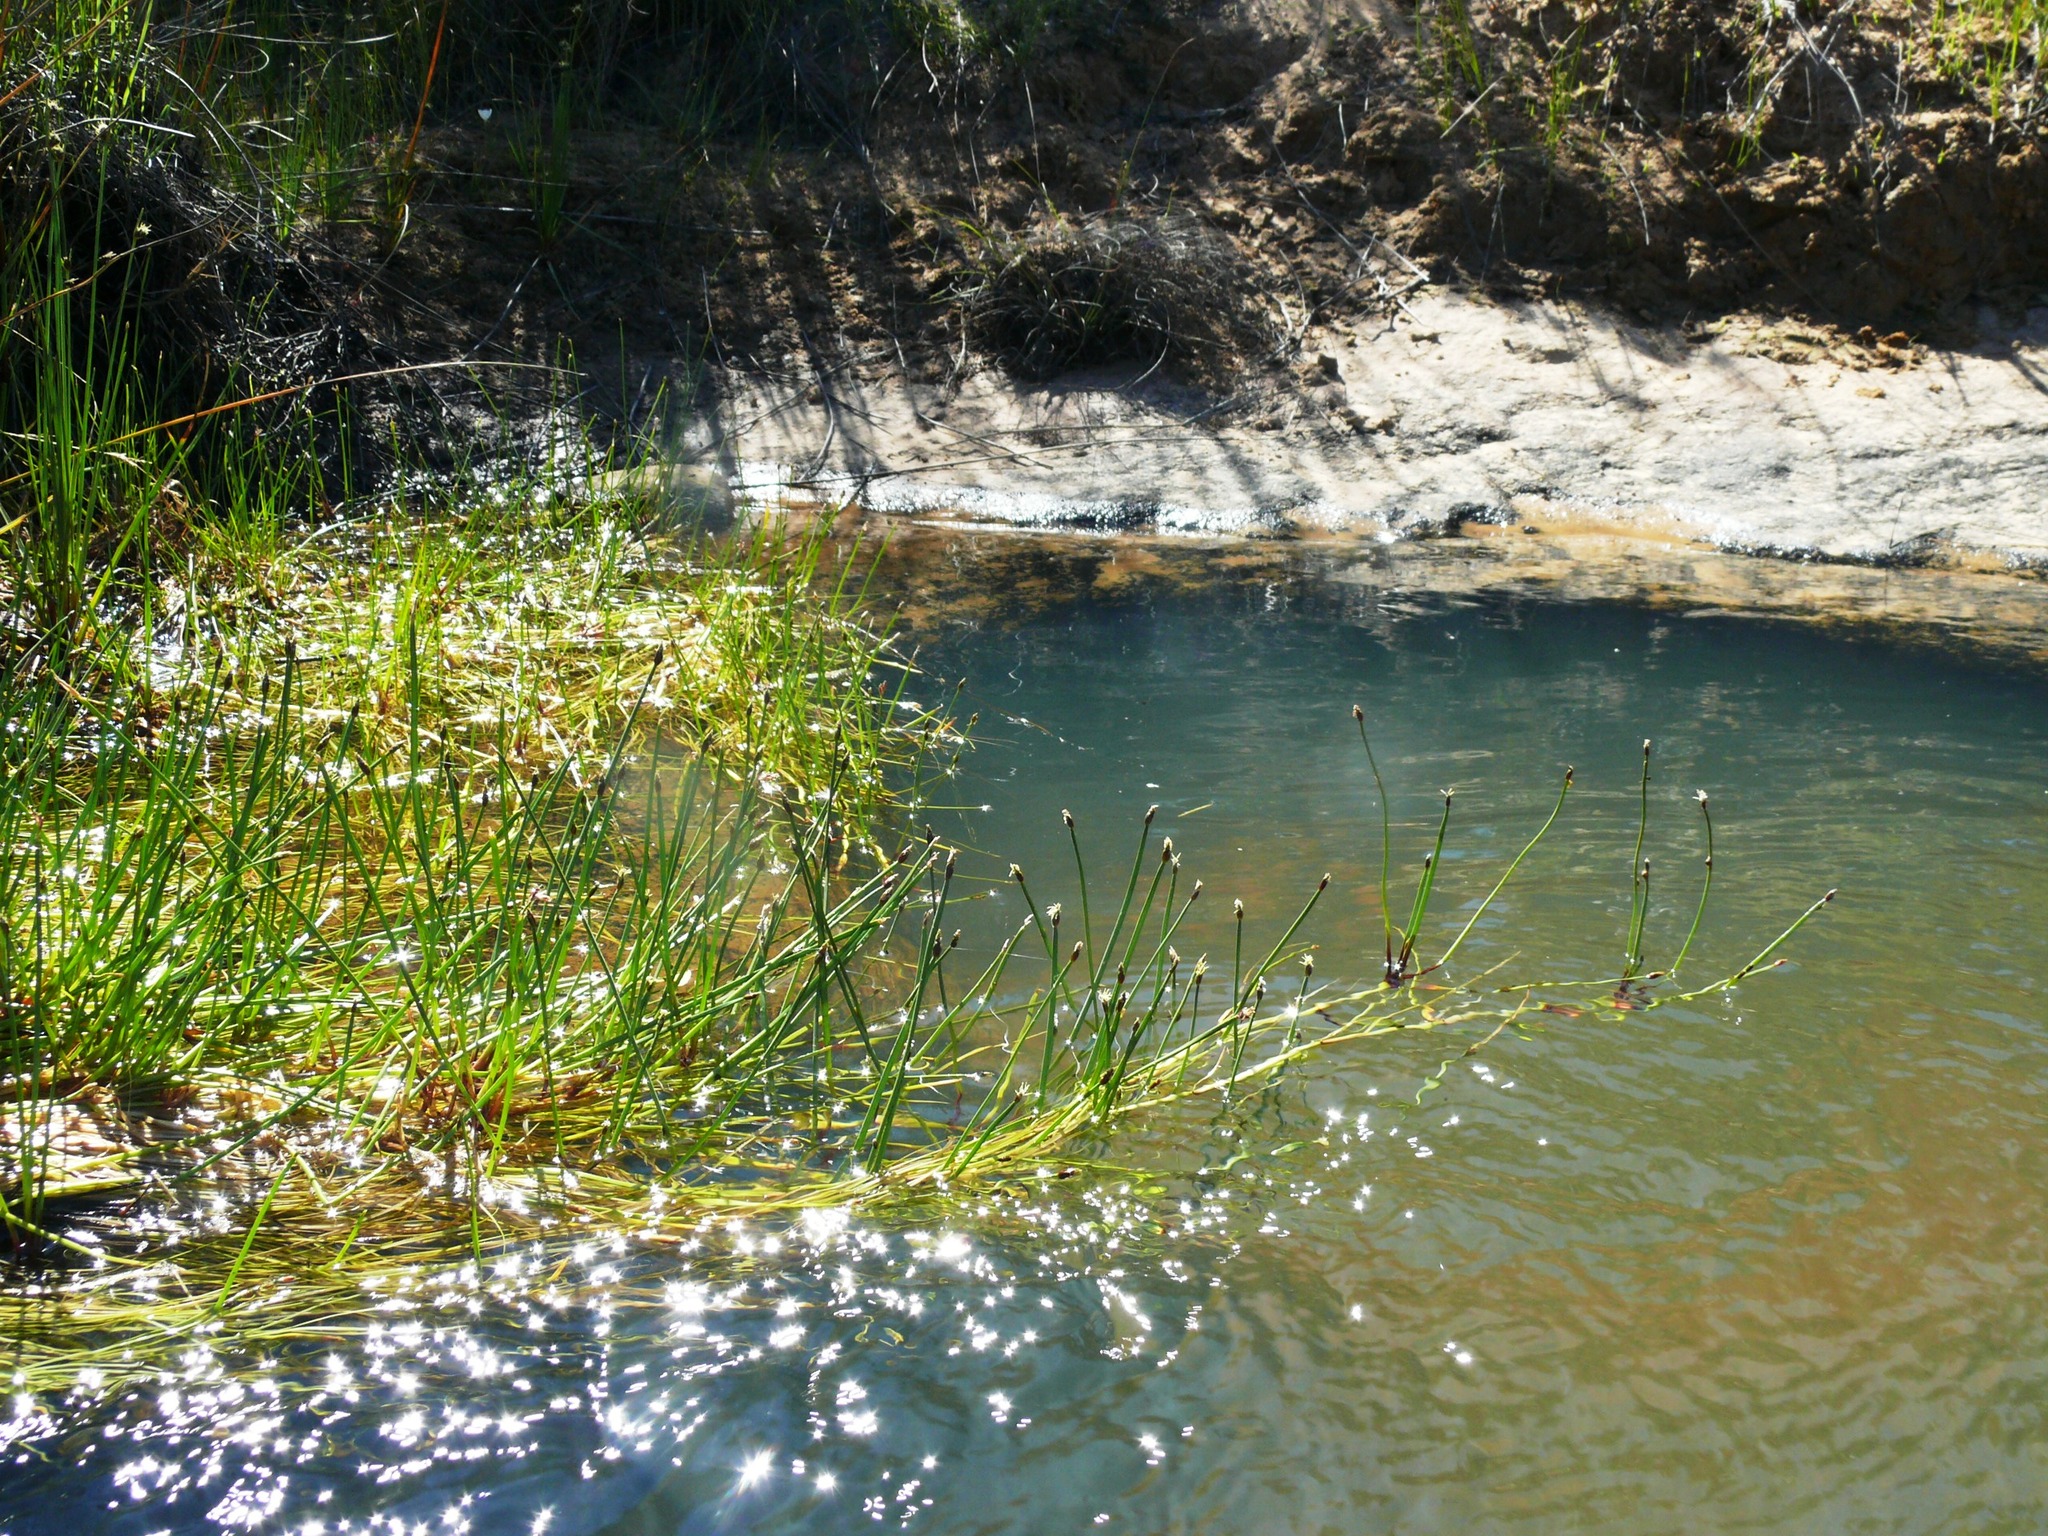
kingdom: Plantae
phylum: Tracheophyta
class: Liliopsida
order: Poales
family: Cyperaceae
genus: Isolepis
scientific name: Isolepis striata
